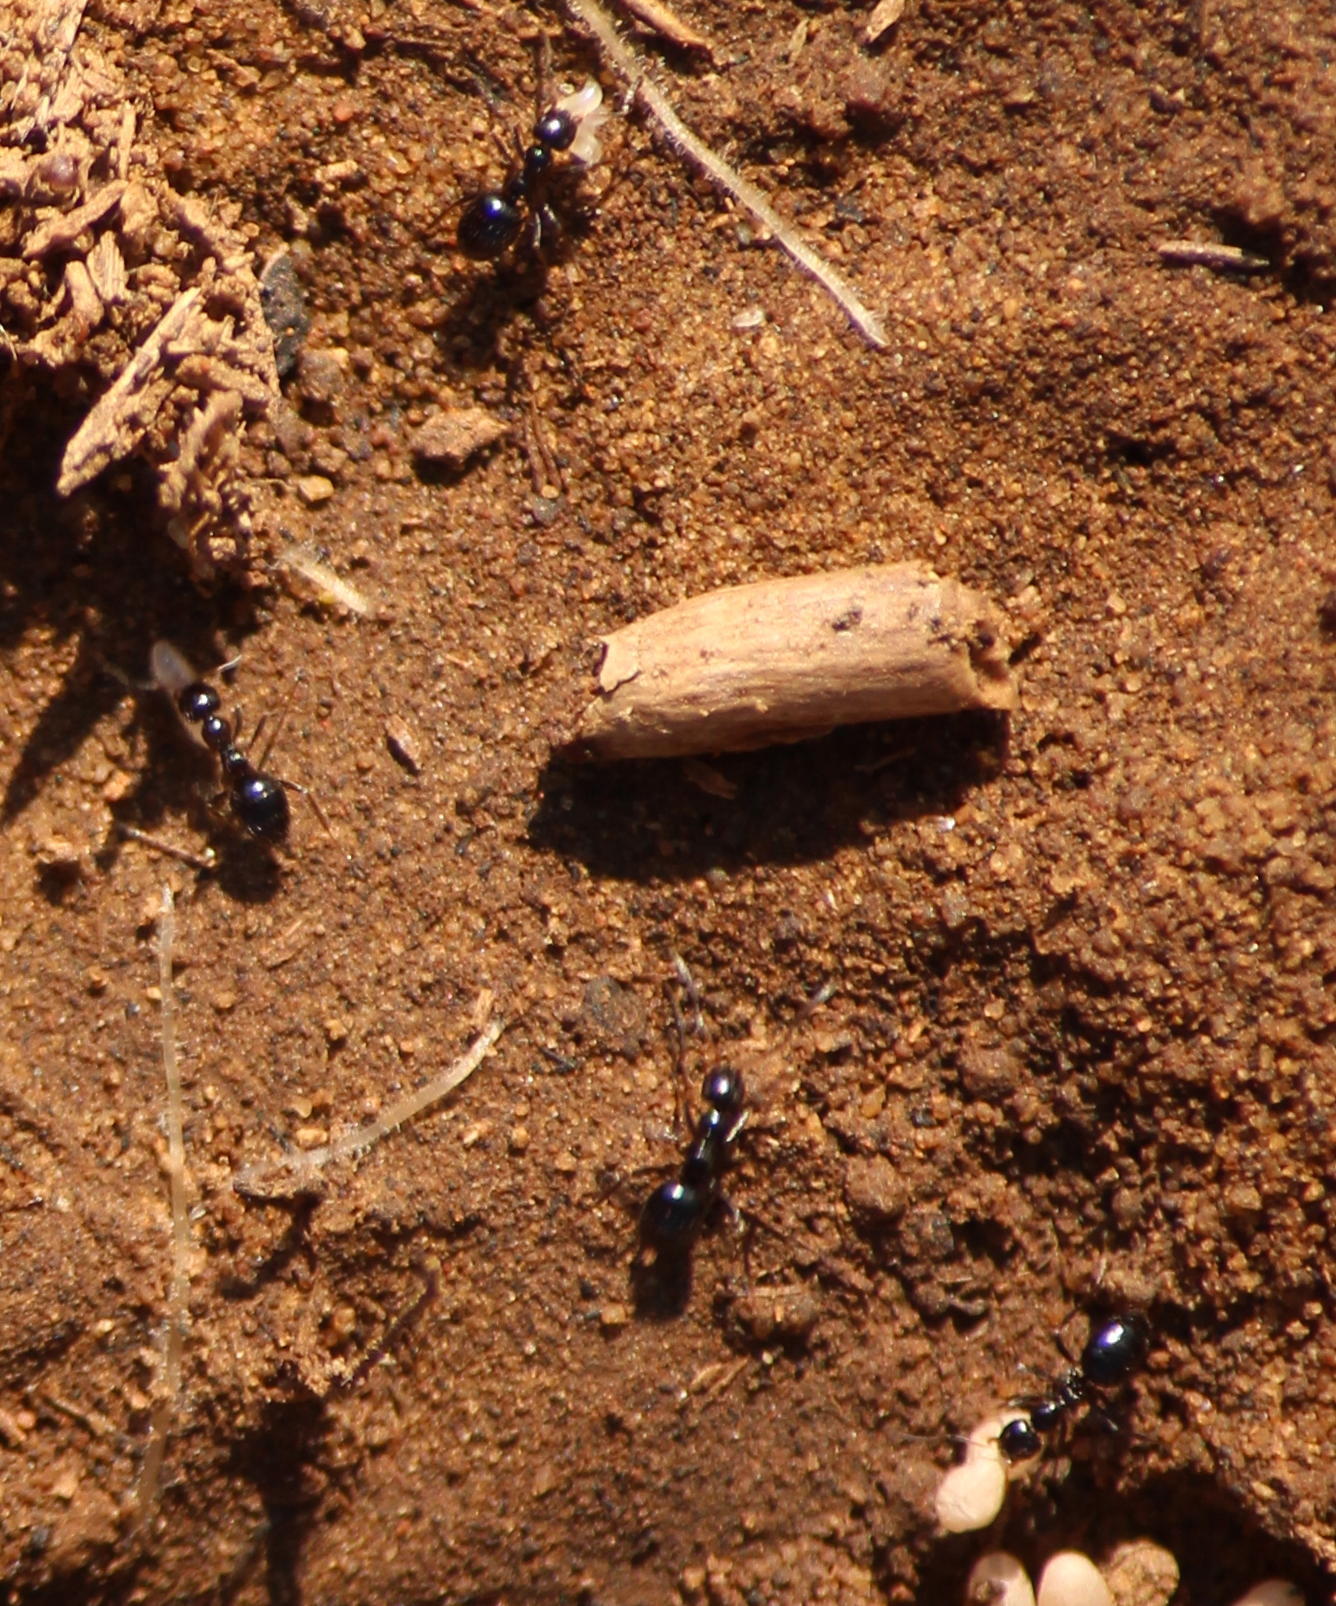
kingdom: Animalia
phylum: Arthropoda
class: Insecta
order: Hymenoptera
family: Formicidae
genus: Lepisiota
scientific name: Lepisiota capensis
